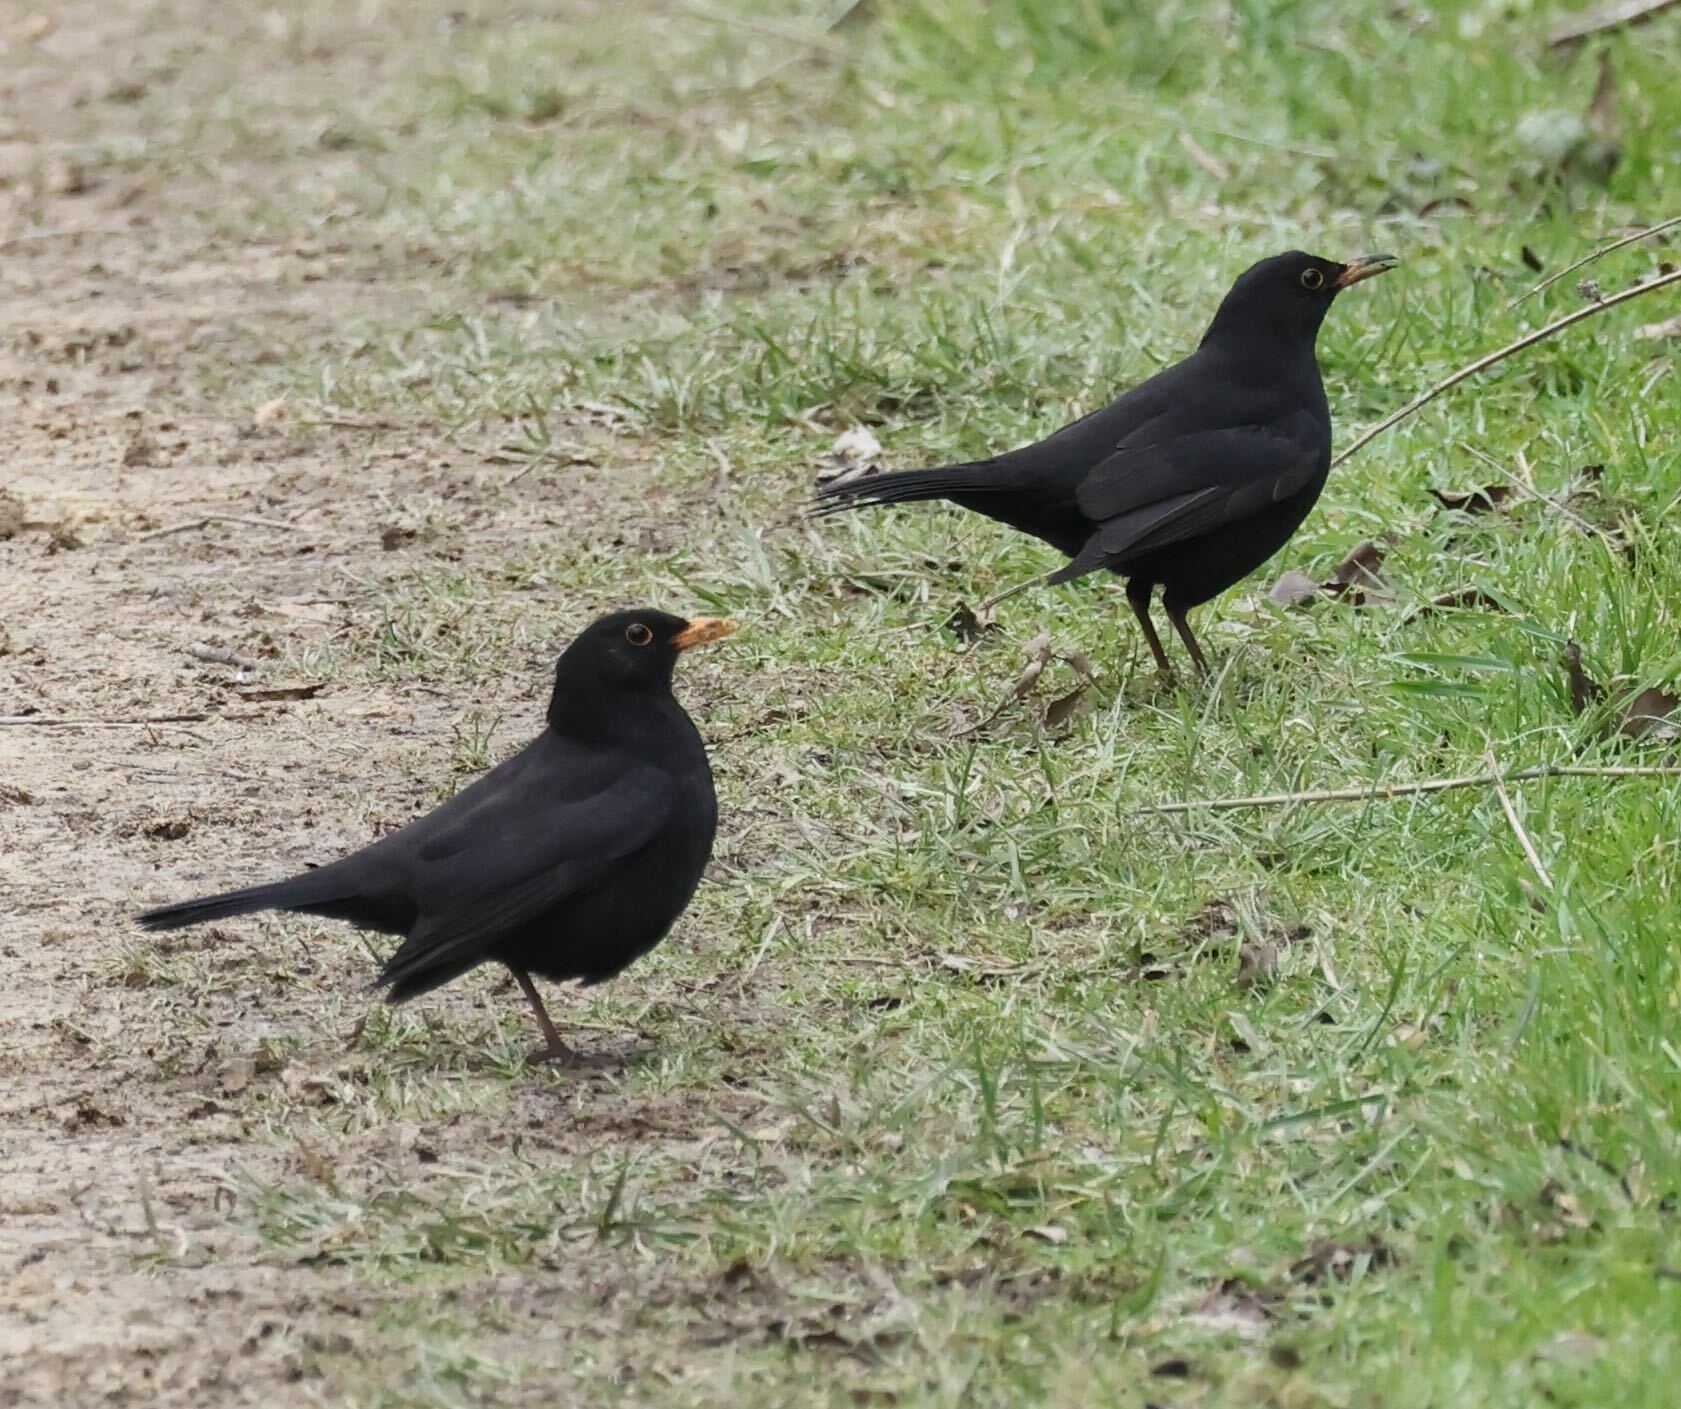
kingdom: Animalia
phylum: Chordata
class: Aves
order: Passeriformes
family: Turdidae
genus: Turdus
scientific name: Turdus merula
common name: Common blackbird
